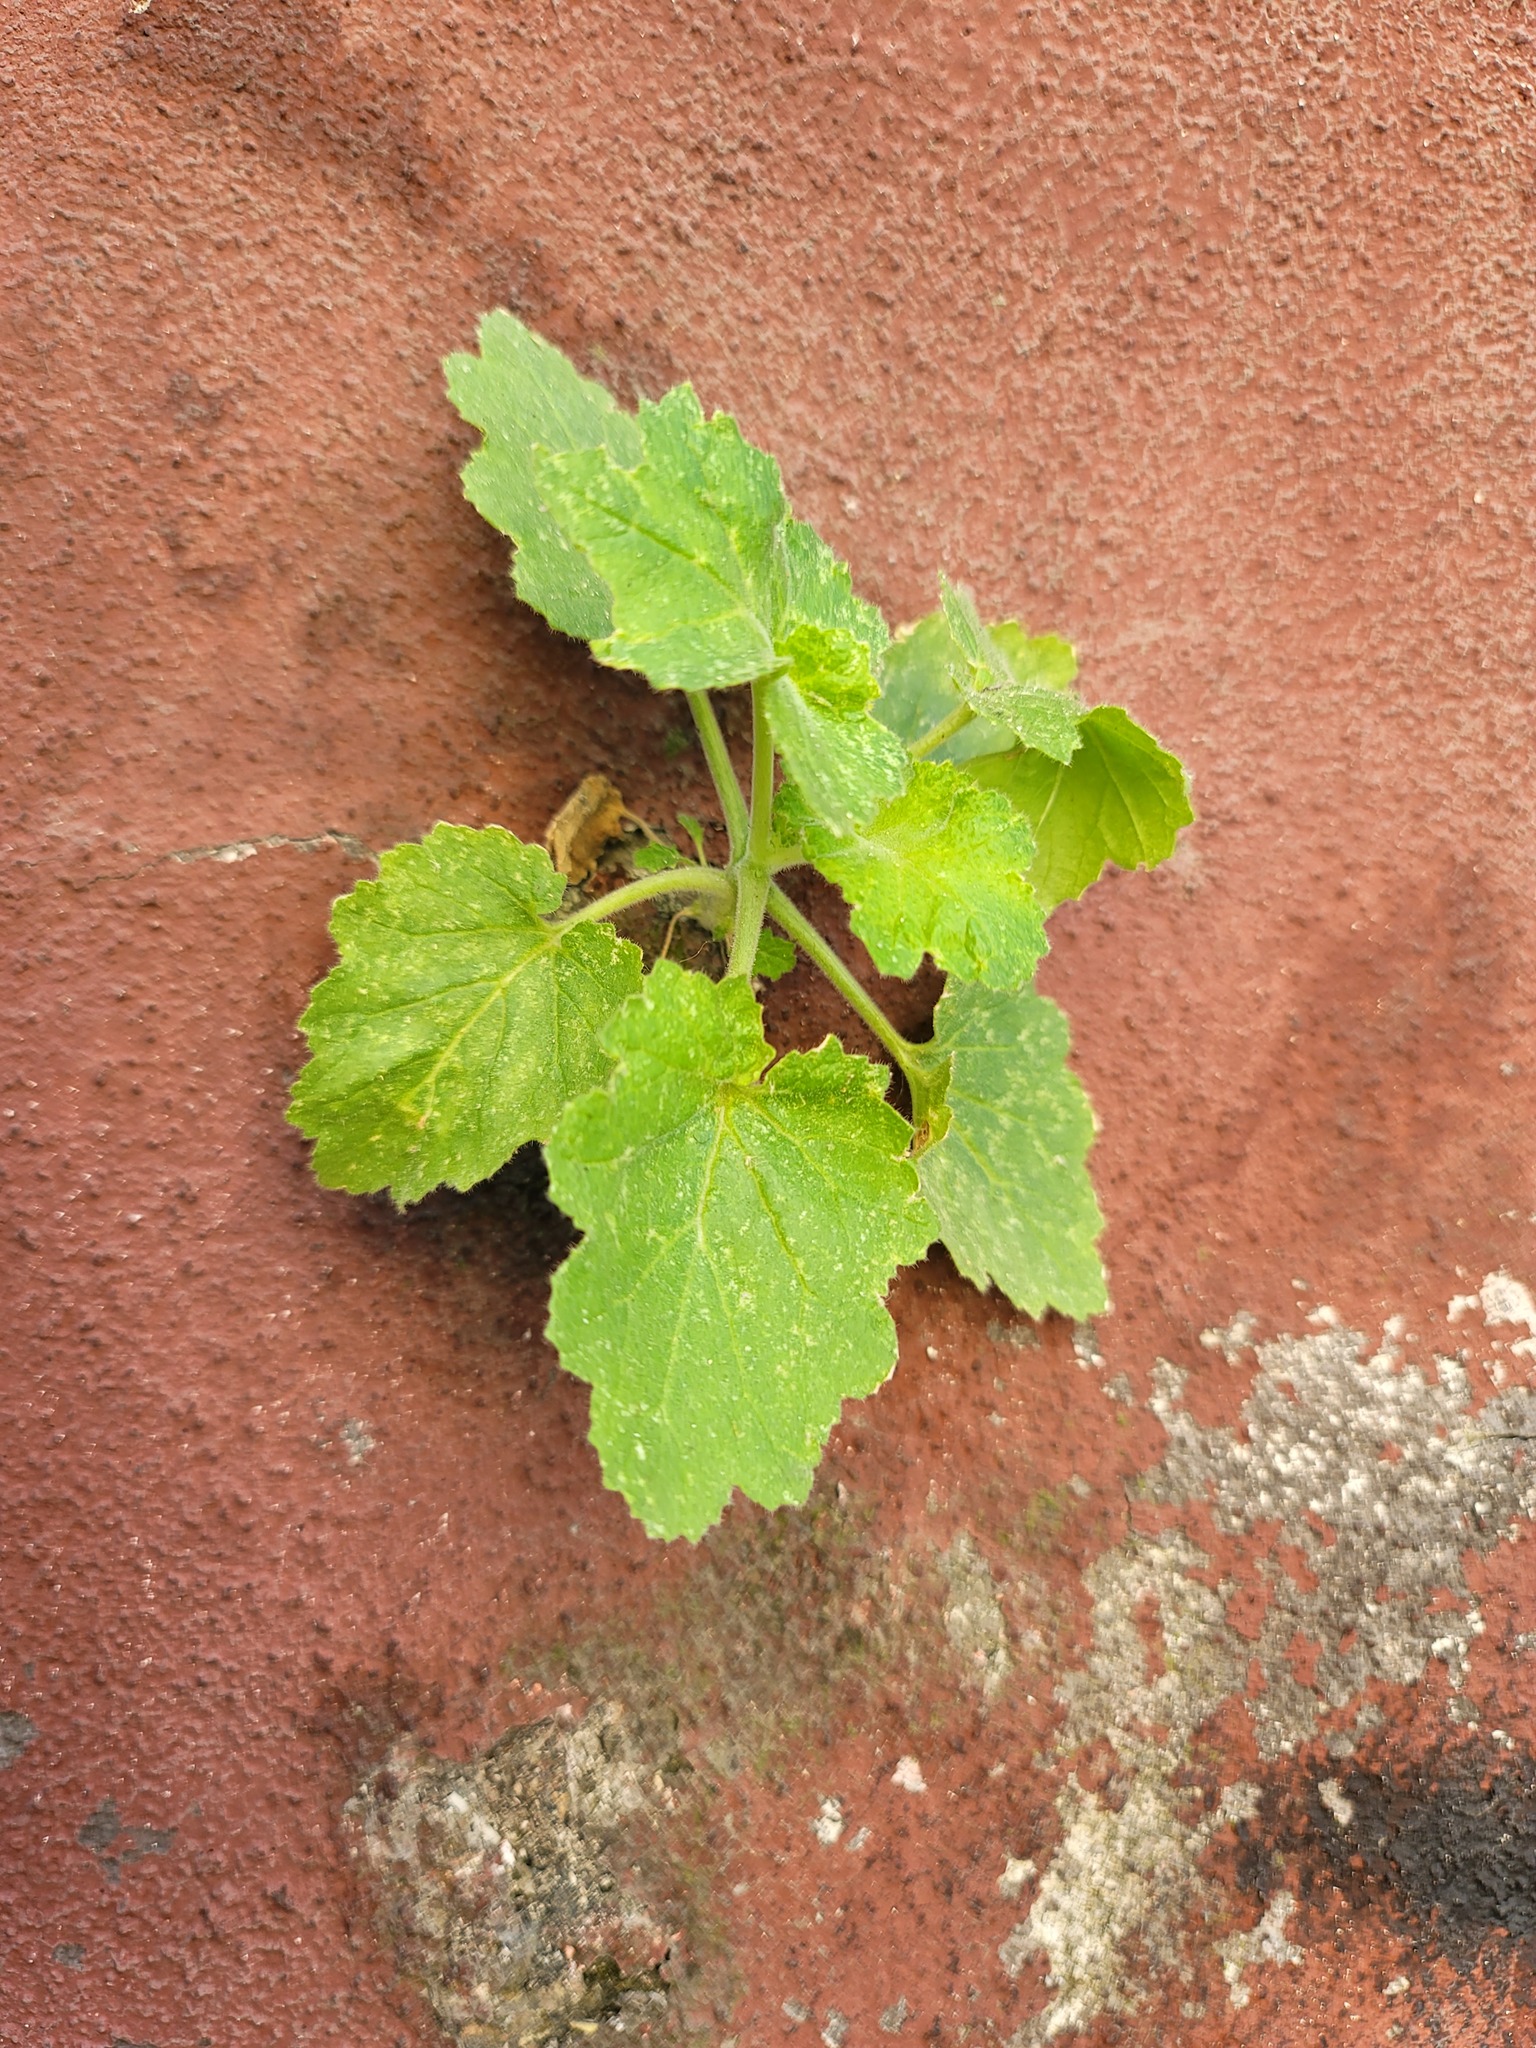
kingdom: Plantae
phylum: Tracheophyta
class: Magnoliopsida
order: Cornales
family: Loasaceae
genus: Eucnide
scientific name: Eucnide lobata
